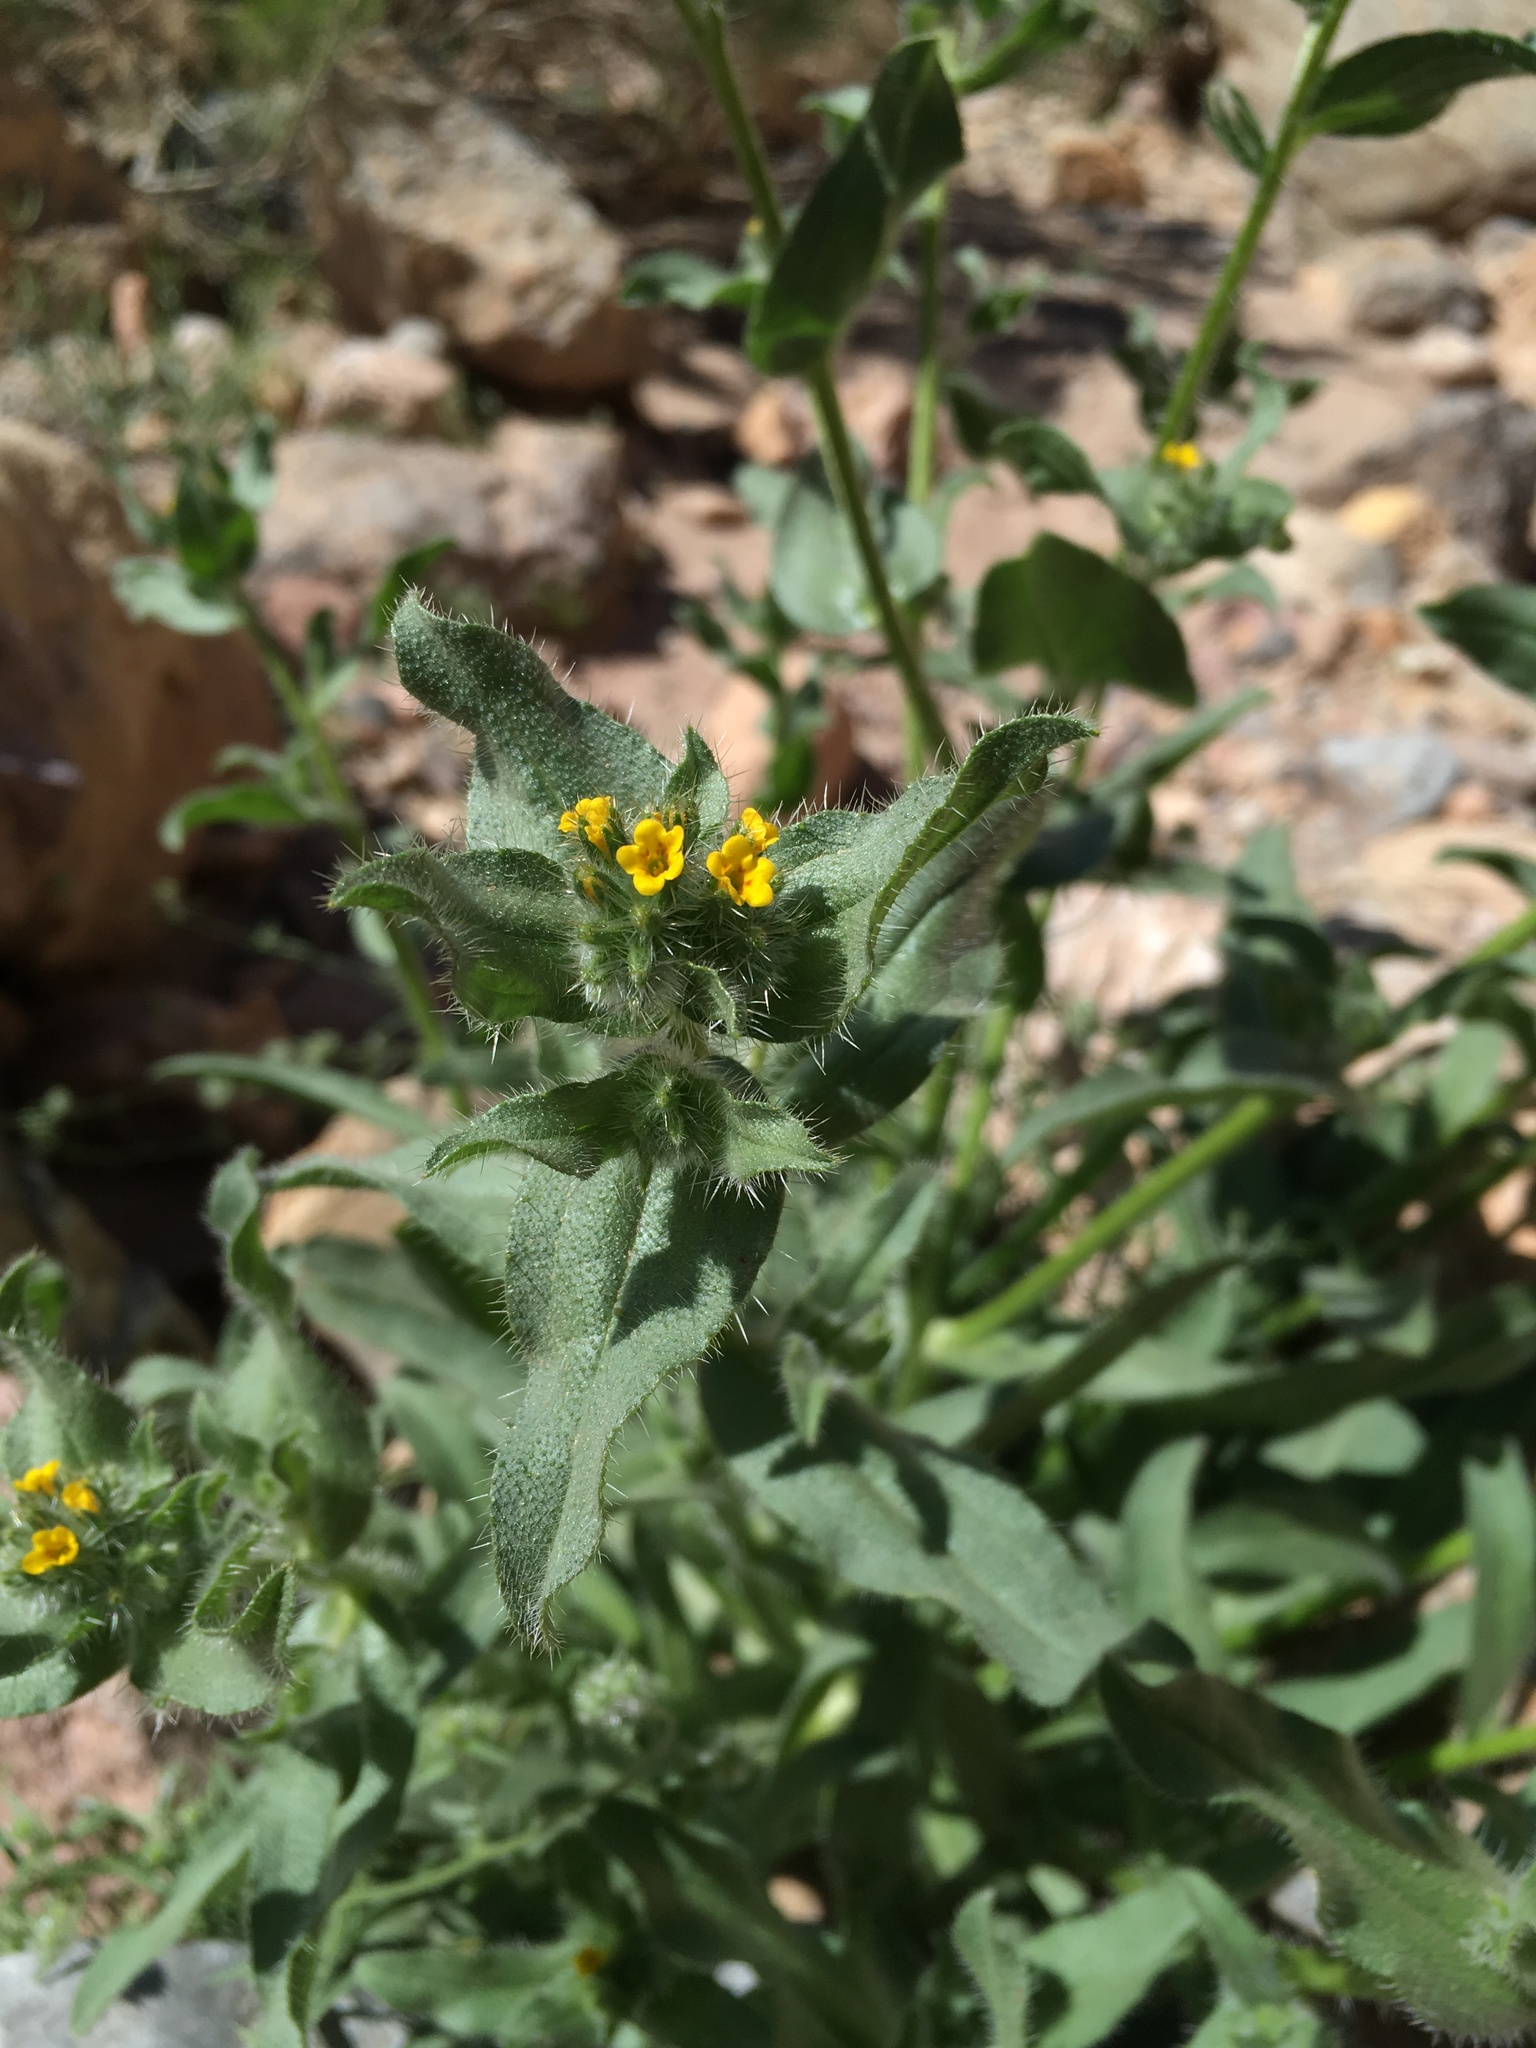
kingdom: Plantae
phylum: Tracheophyta
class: Magnoliopsida
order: Boraginales
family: Boraginaceae
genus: Amsinckia
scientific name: Amsinckia tessellata
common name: Tessellate fiddleneck
